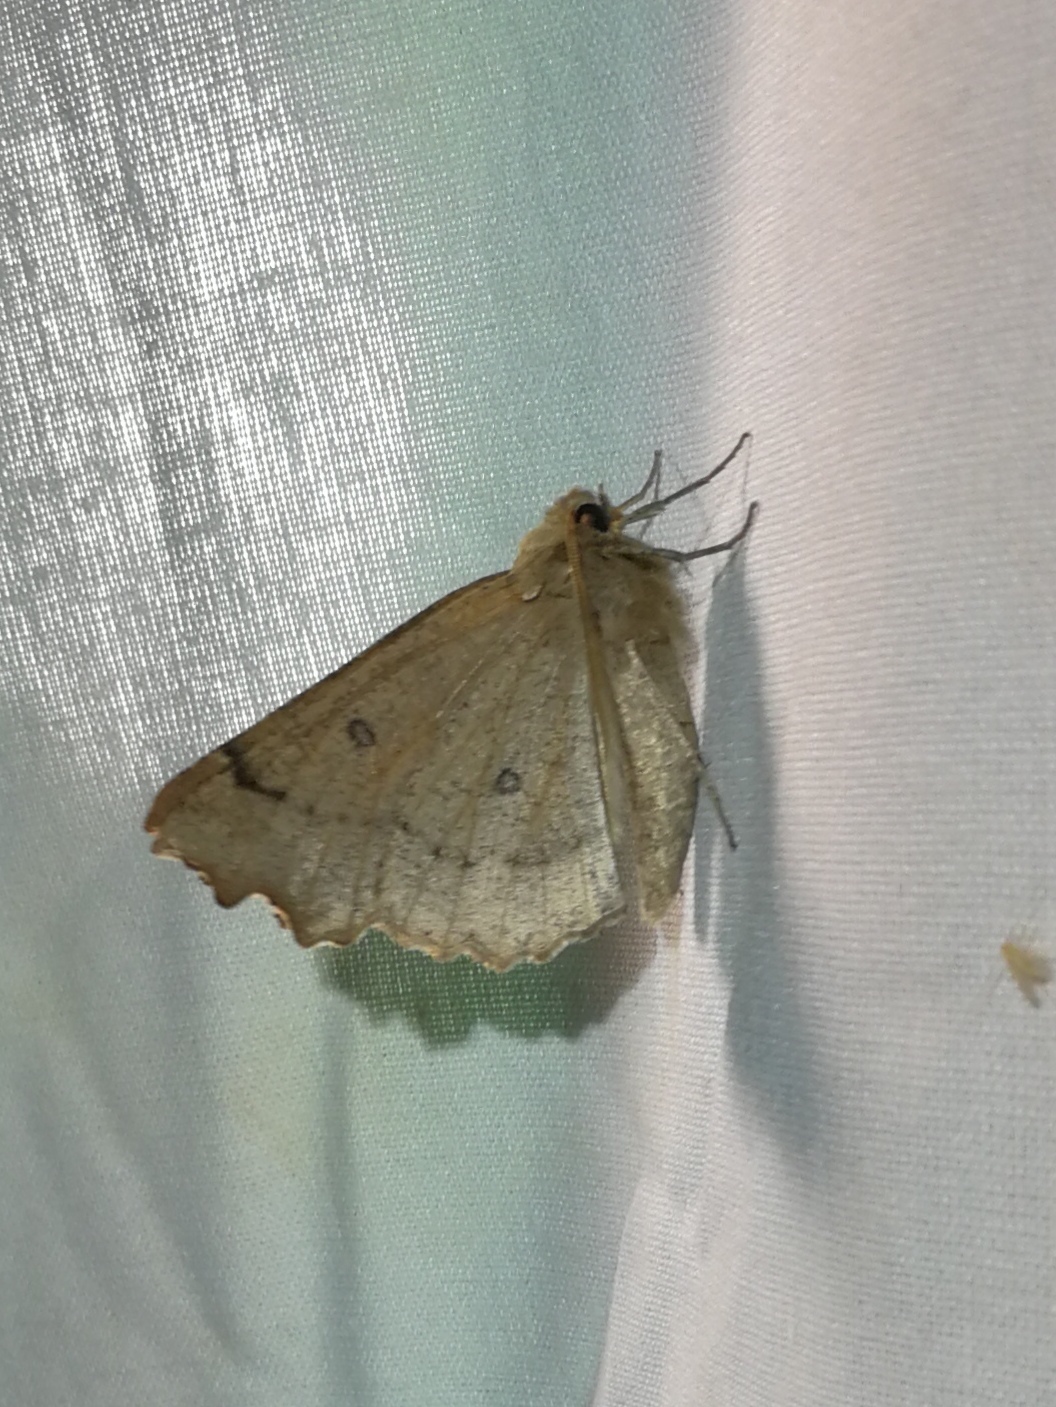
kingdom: Animalia
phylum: Arthropoda
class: Insecta
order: Lepidoptera
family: Geometridae
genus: Odontopera
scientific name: Odontopera bidentata
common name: Scalloped hazel
